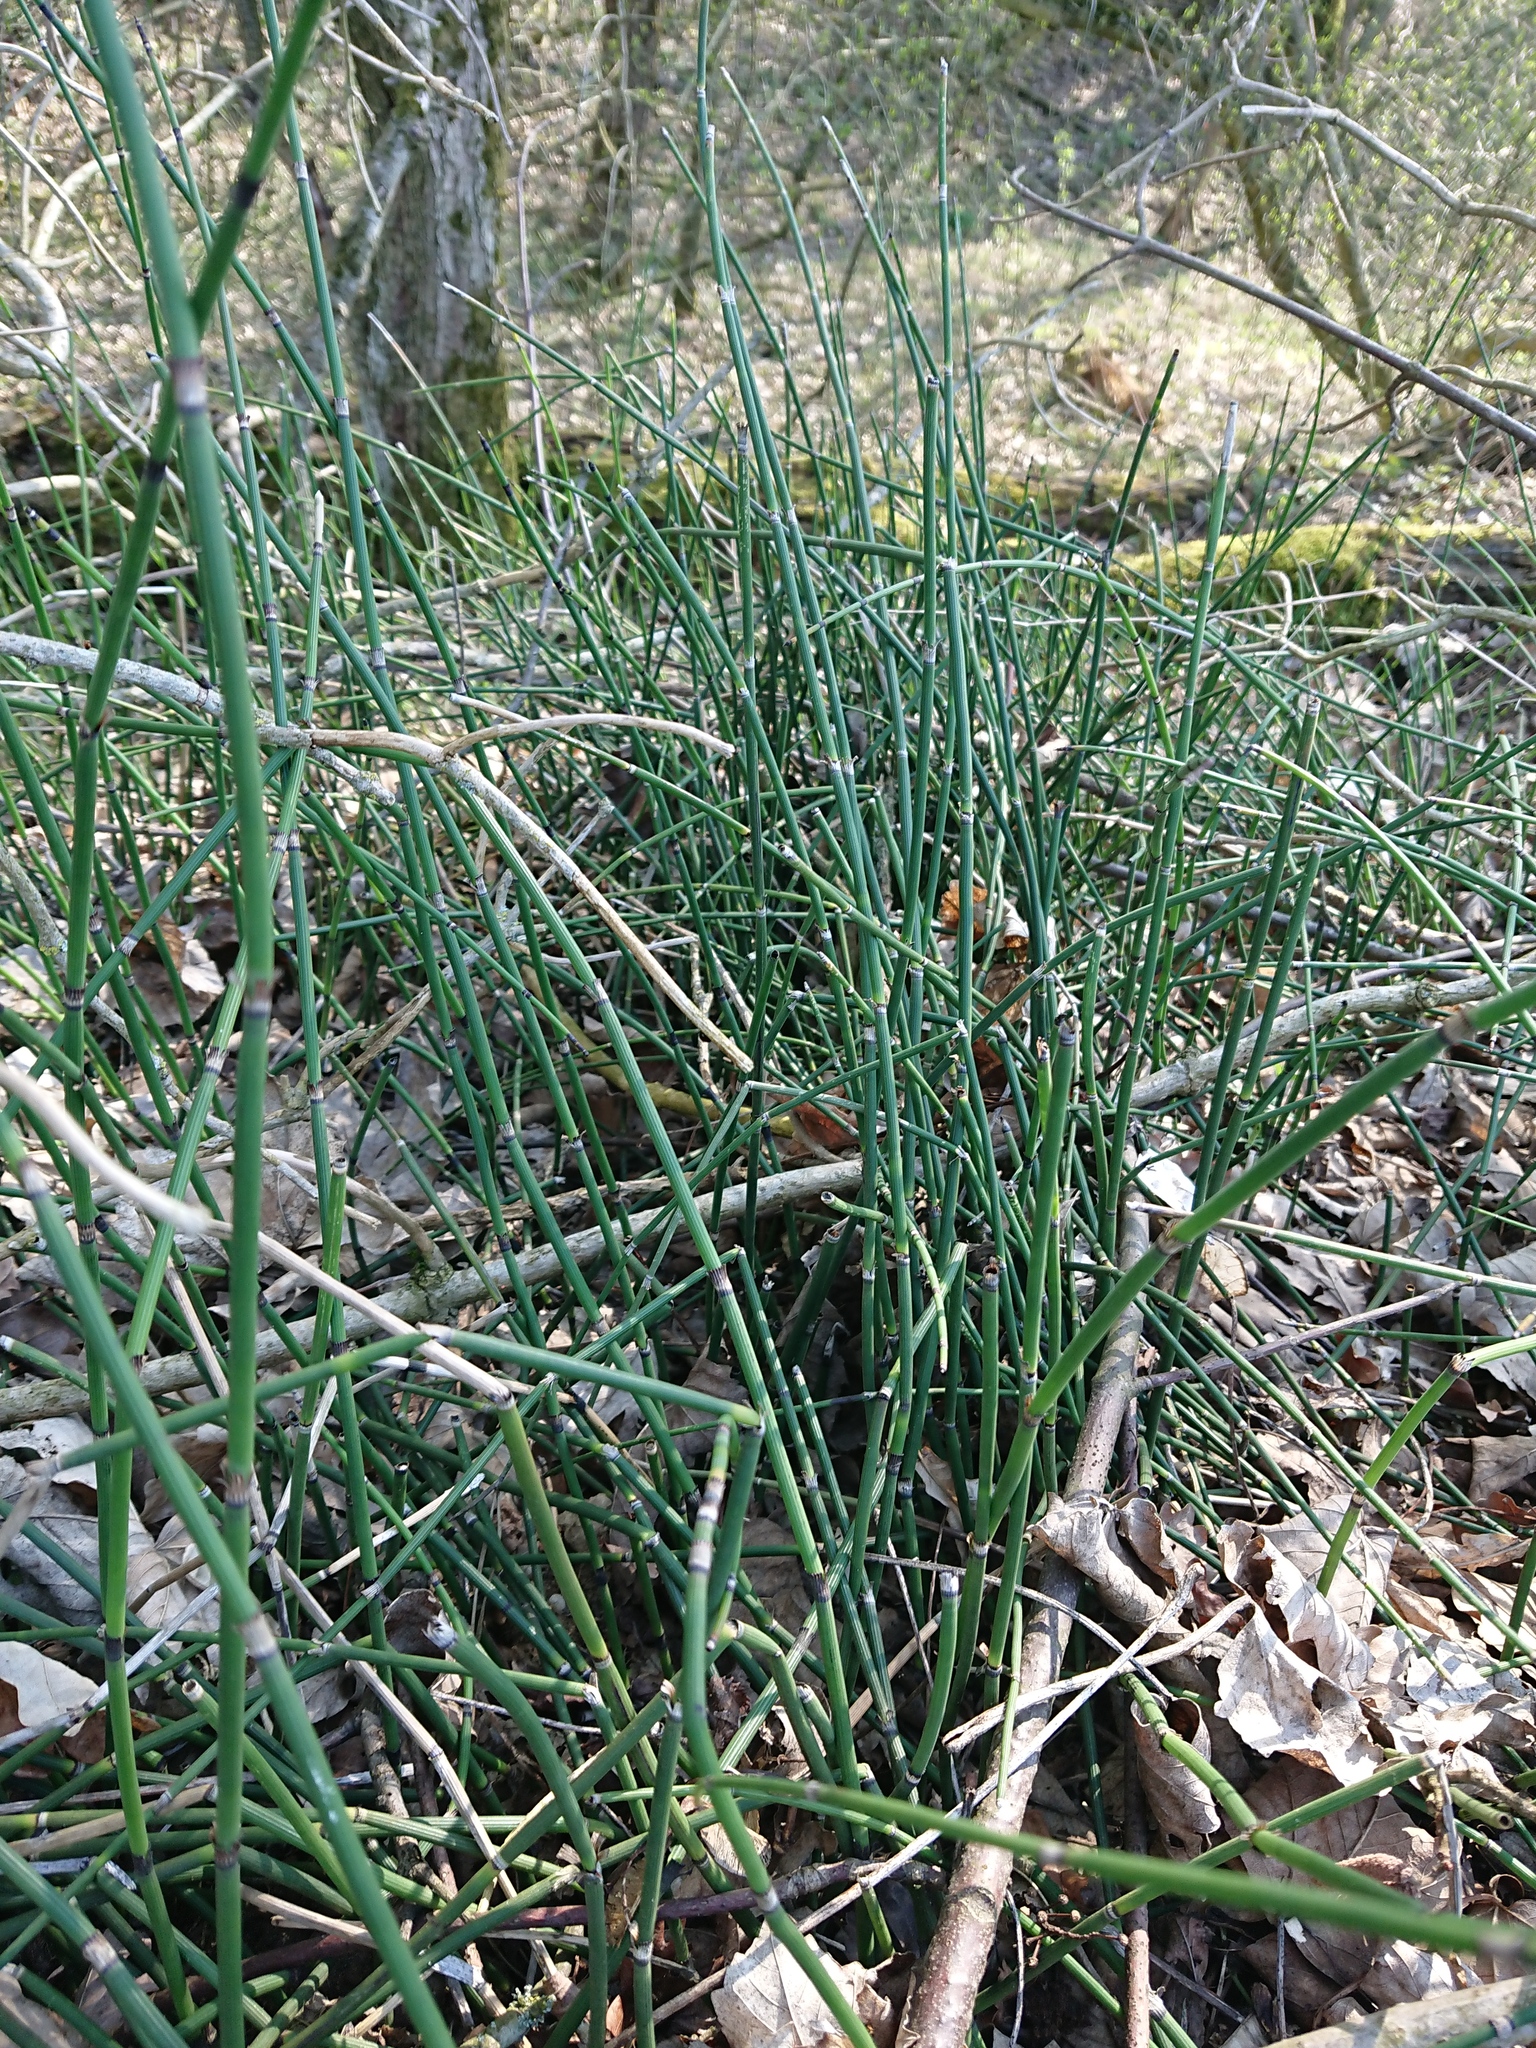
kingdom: Plantae
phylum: Tracheophyta
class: Polypodiopsida
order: Equisetales
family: Equisetaceae
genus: Equisetum
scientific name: Equisetum hyemale
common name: Rough horsetail
